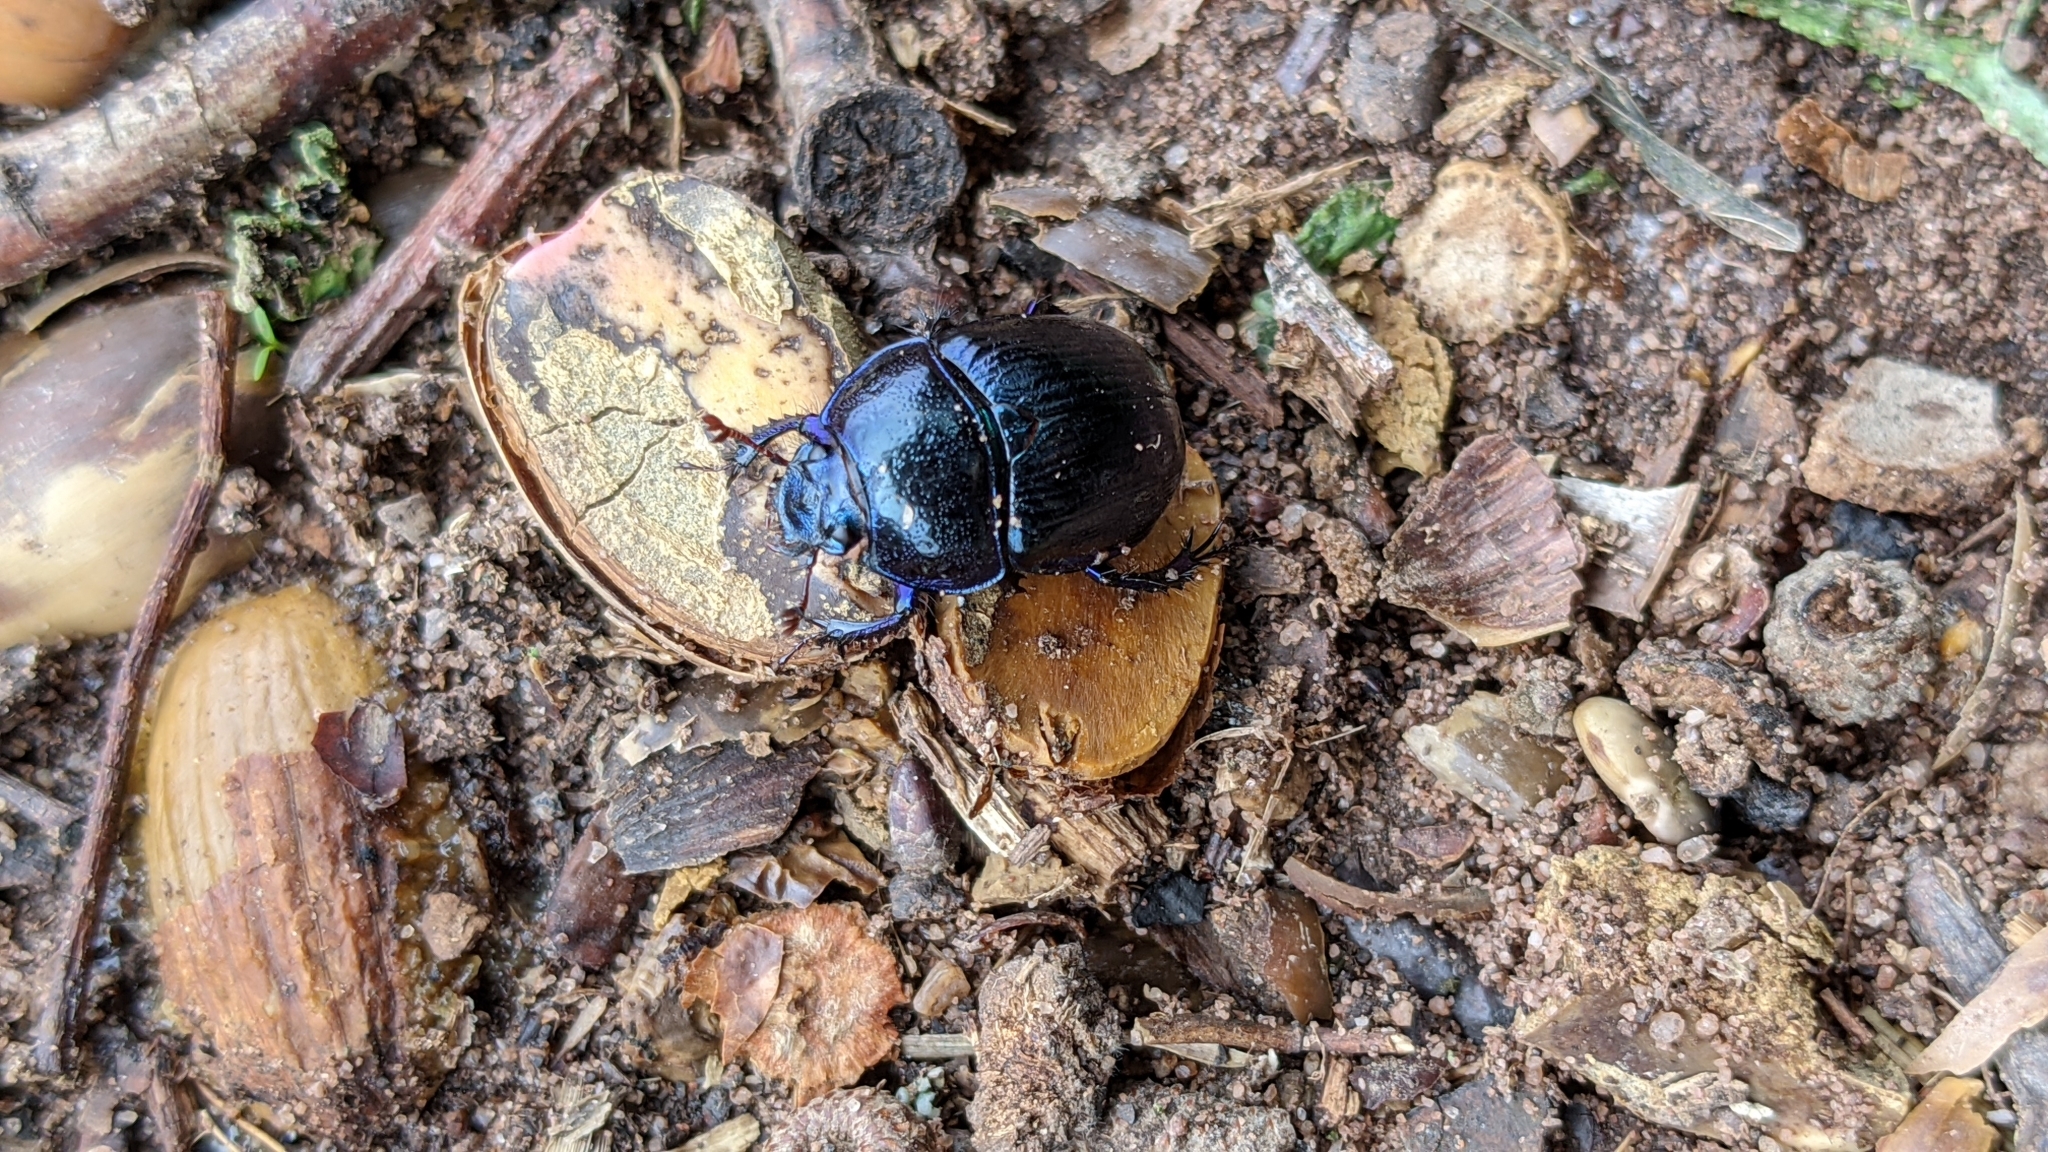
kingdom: Animalia
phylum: Arthropoda
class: Insecta
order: Coleoptera
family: Geotrupidae
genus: Anoplotrupes
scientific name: Anoplotrupes stercorosus
